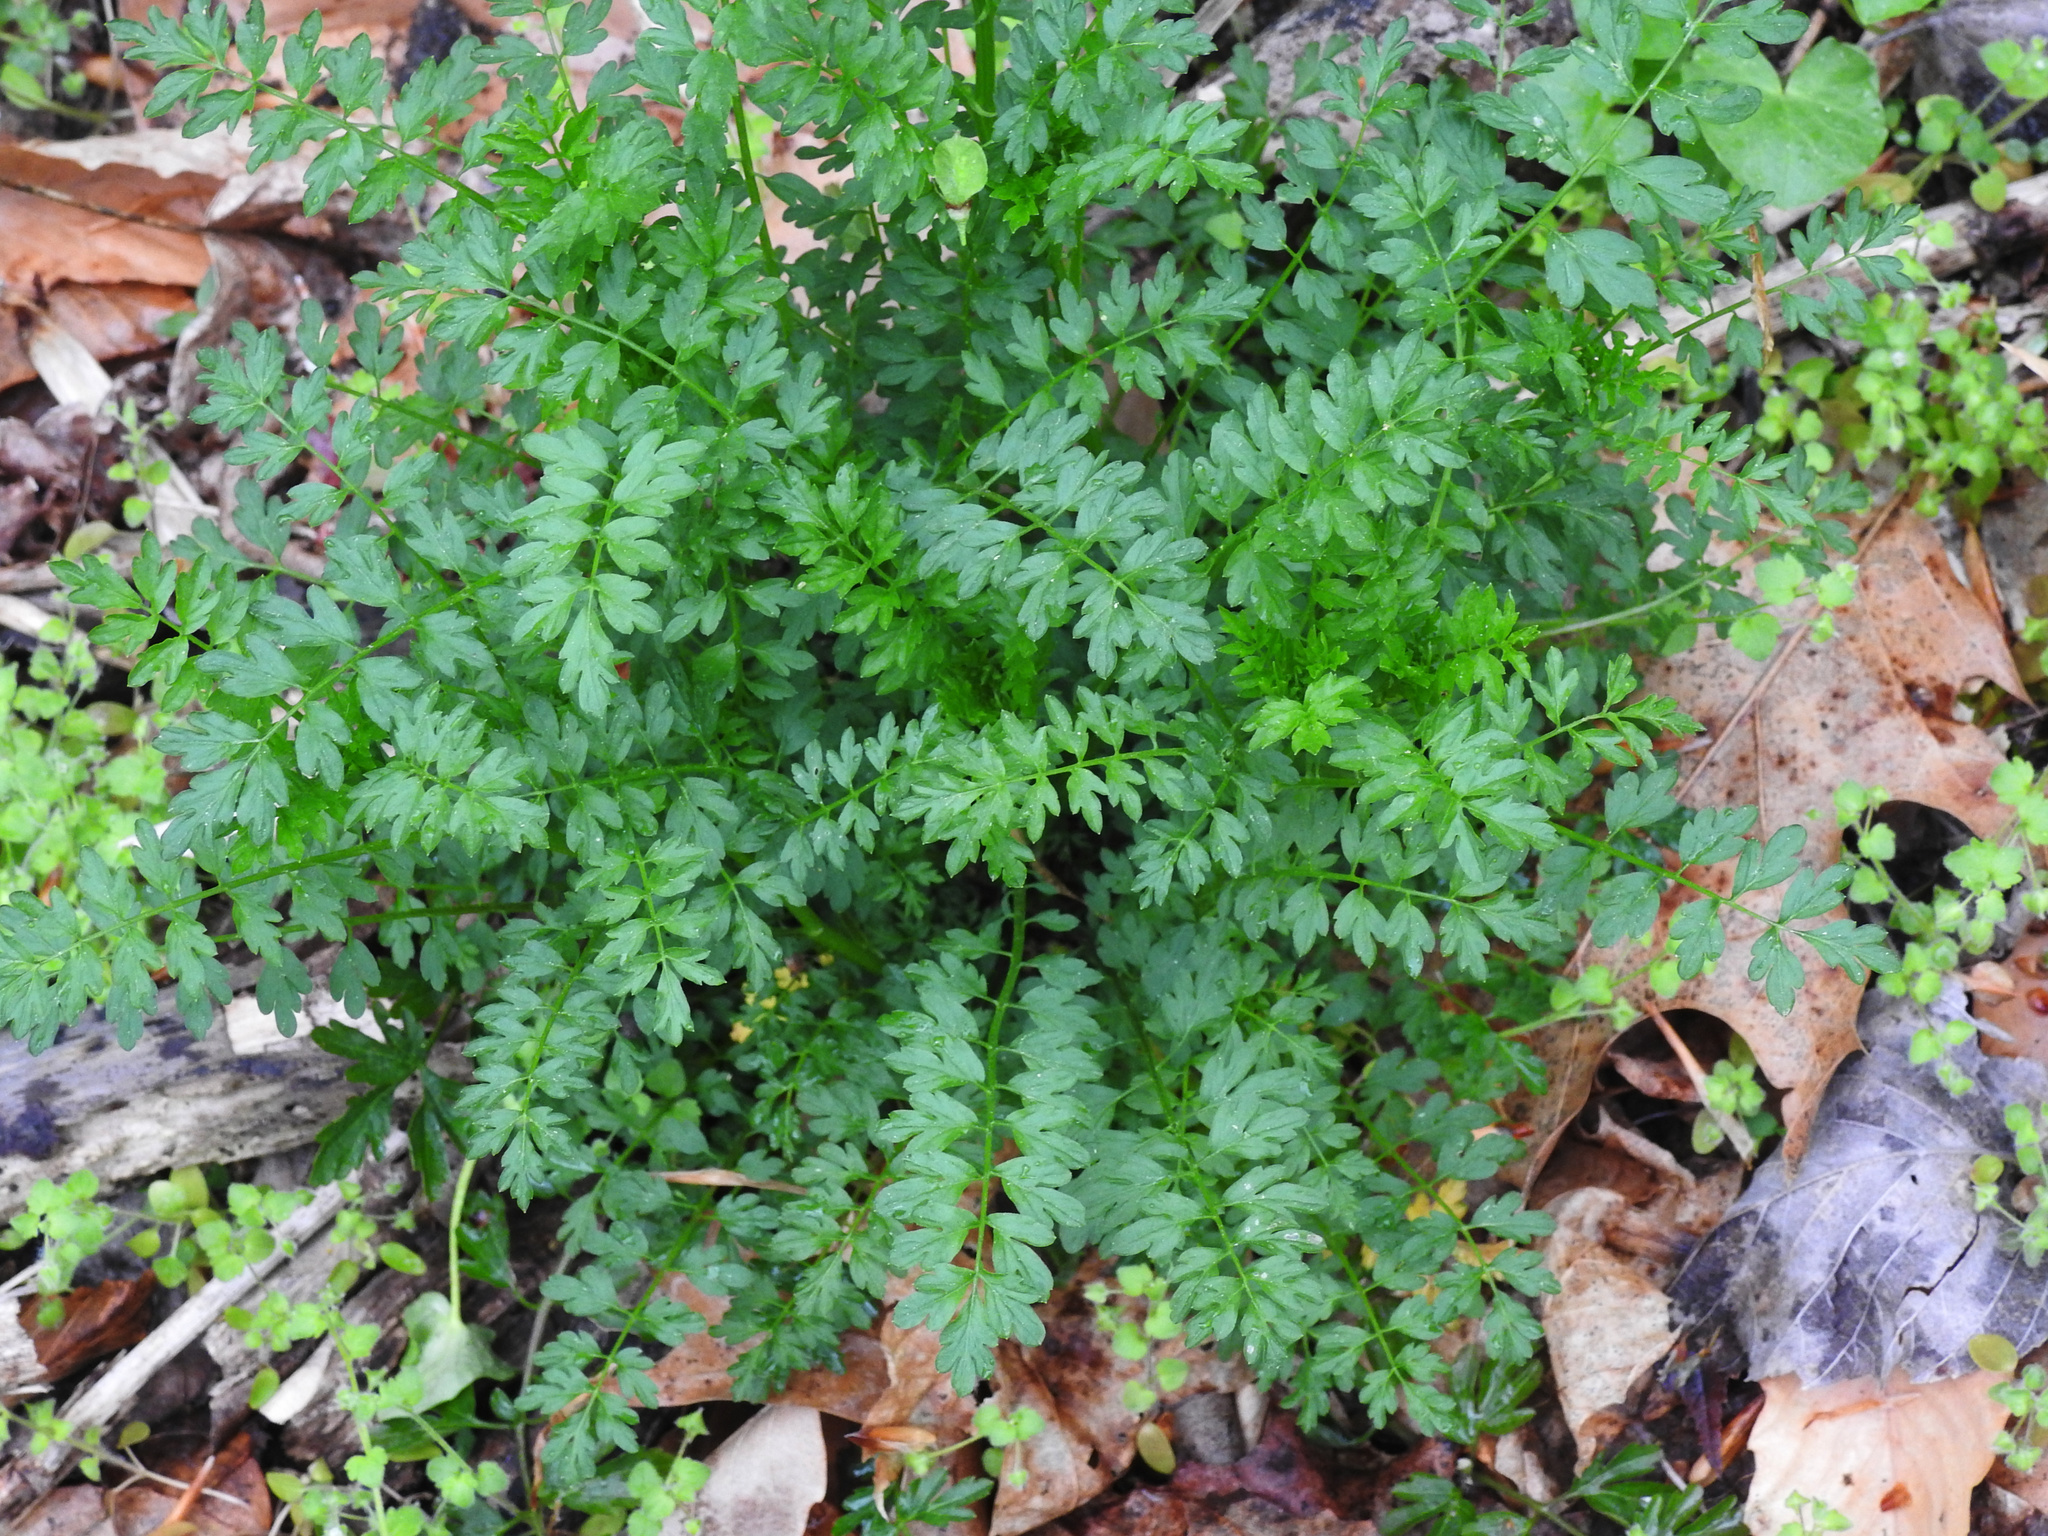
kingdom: Plantae
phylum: Tracheophyta
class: Magnoliopsida
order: Brassicales
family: Brassicaceae
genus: Cardamine
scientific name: Cardamine impatiens
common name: Narrow-leaved bitter-cress
